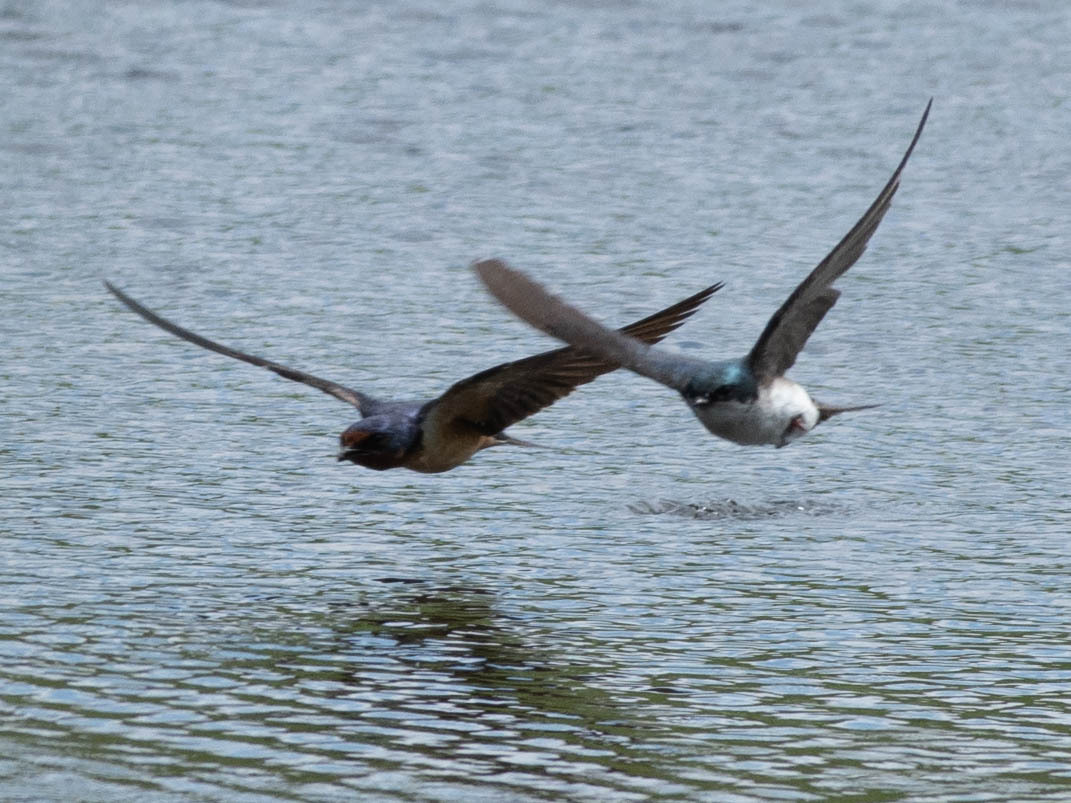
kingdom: Animalia
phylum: Chordata
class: Aves
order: Passeriformes
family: Hirundinidae
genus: Tachycineta
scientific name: Tachycineta bicolor
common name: Tree swallow
